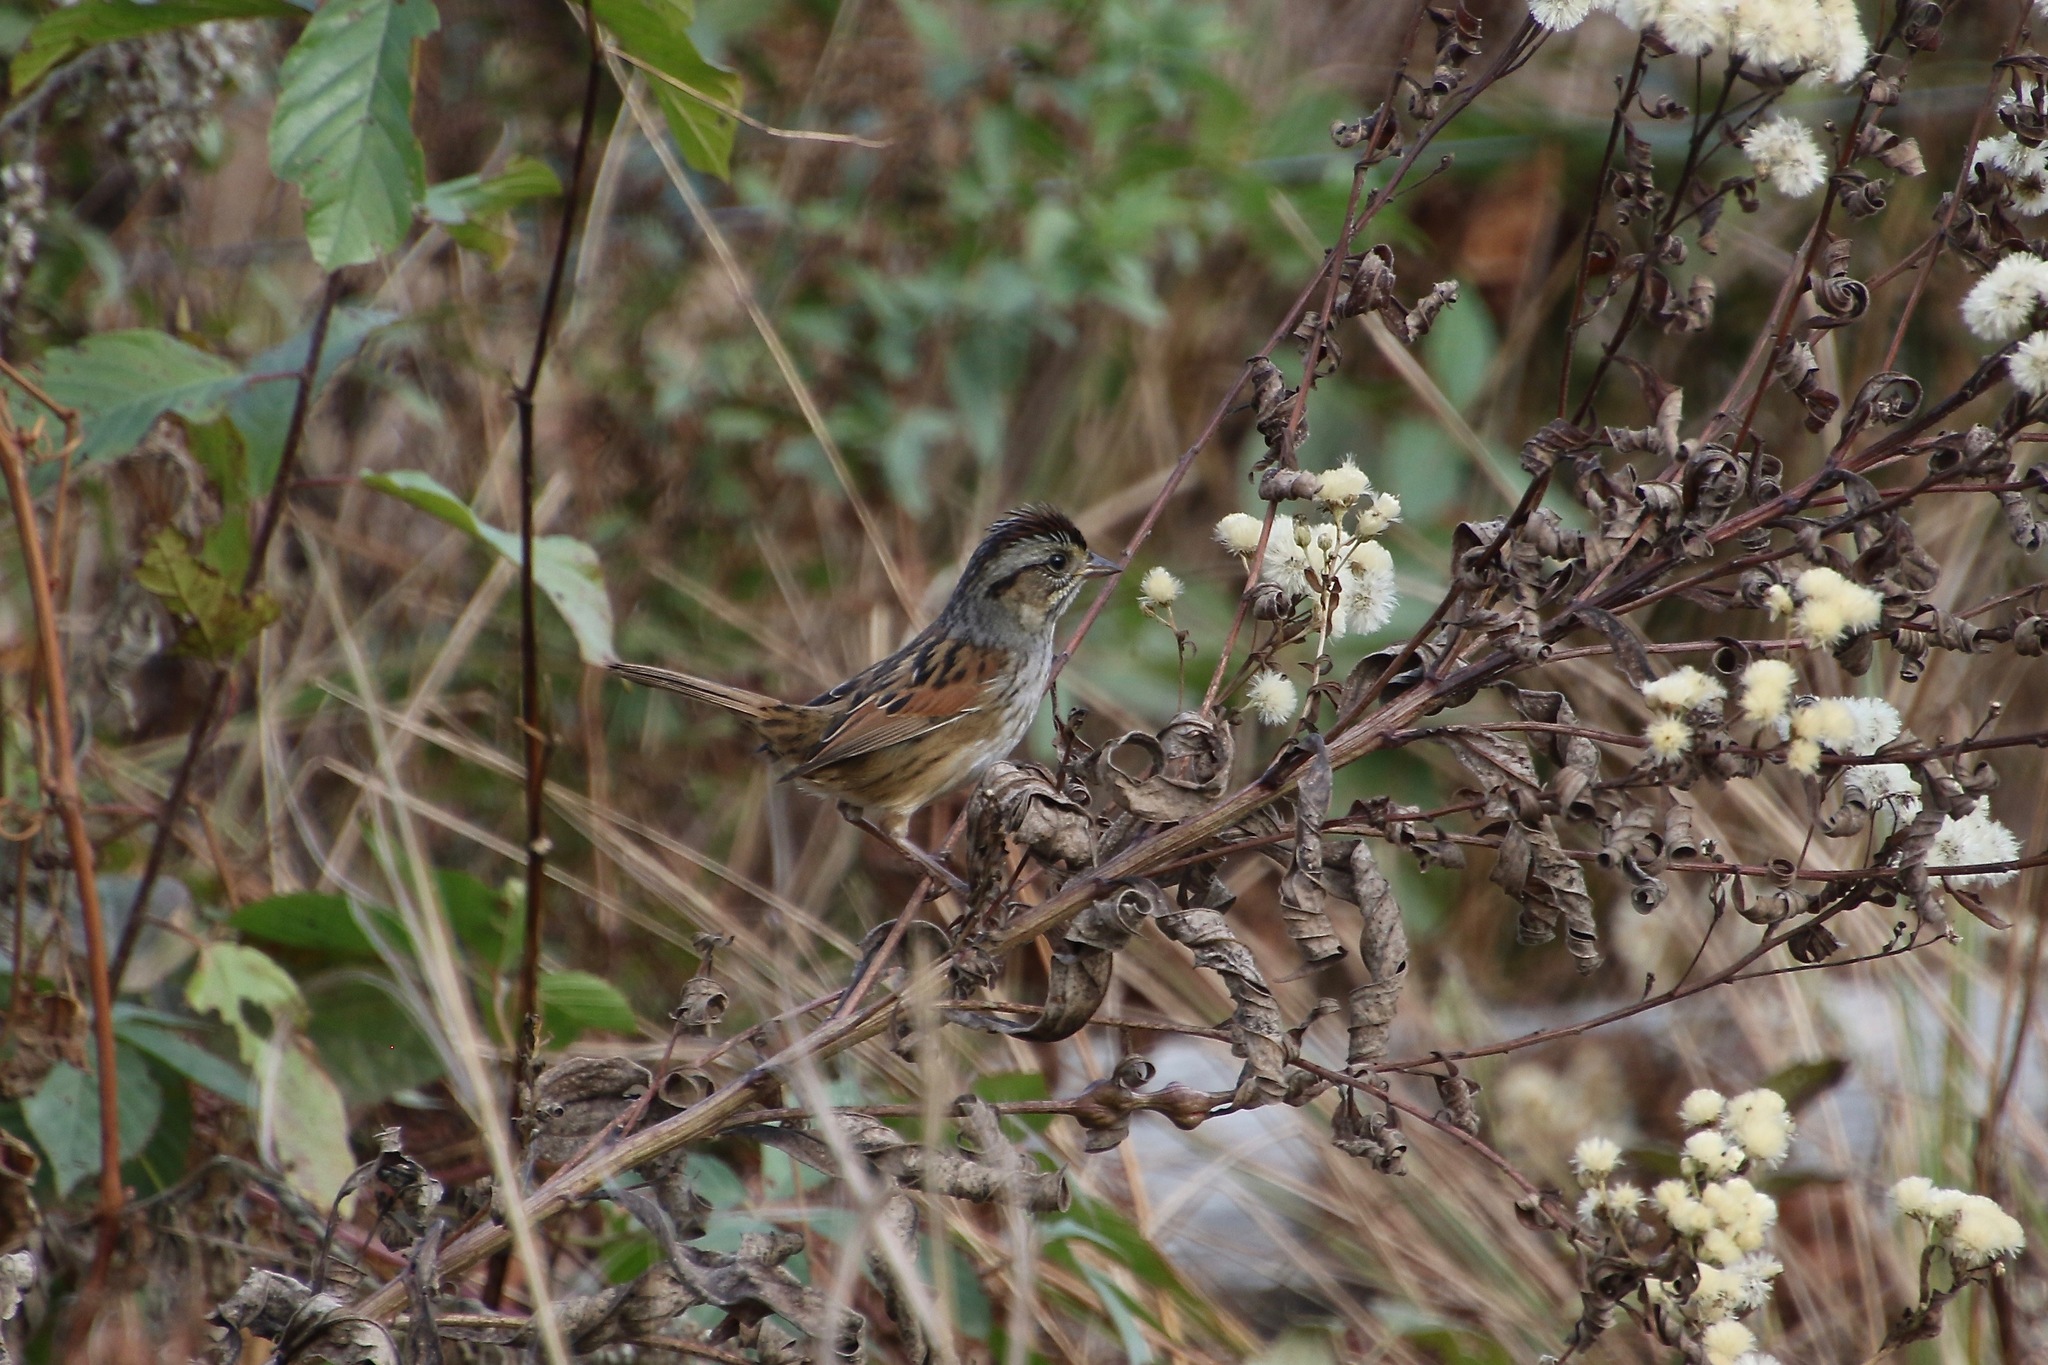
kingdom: Animalia
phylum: Chordata
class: Aves
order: Passeriformes
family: Passerellidae
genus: Melospiza
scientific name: Melospiza georgiana
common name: Swamp sparrow
